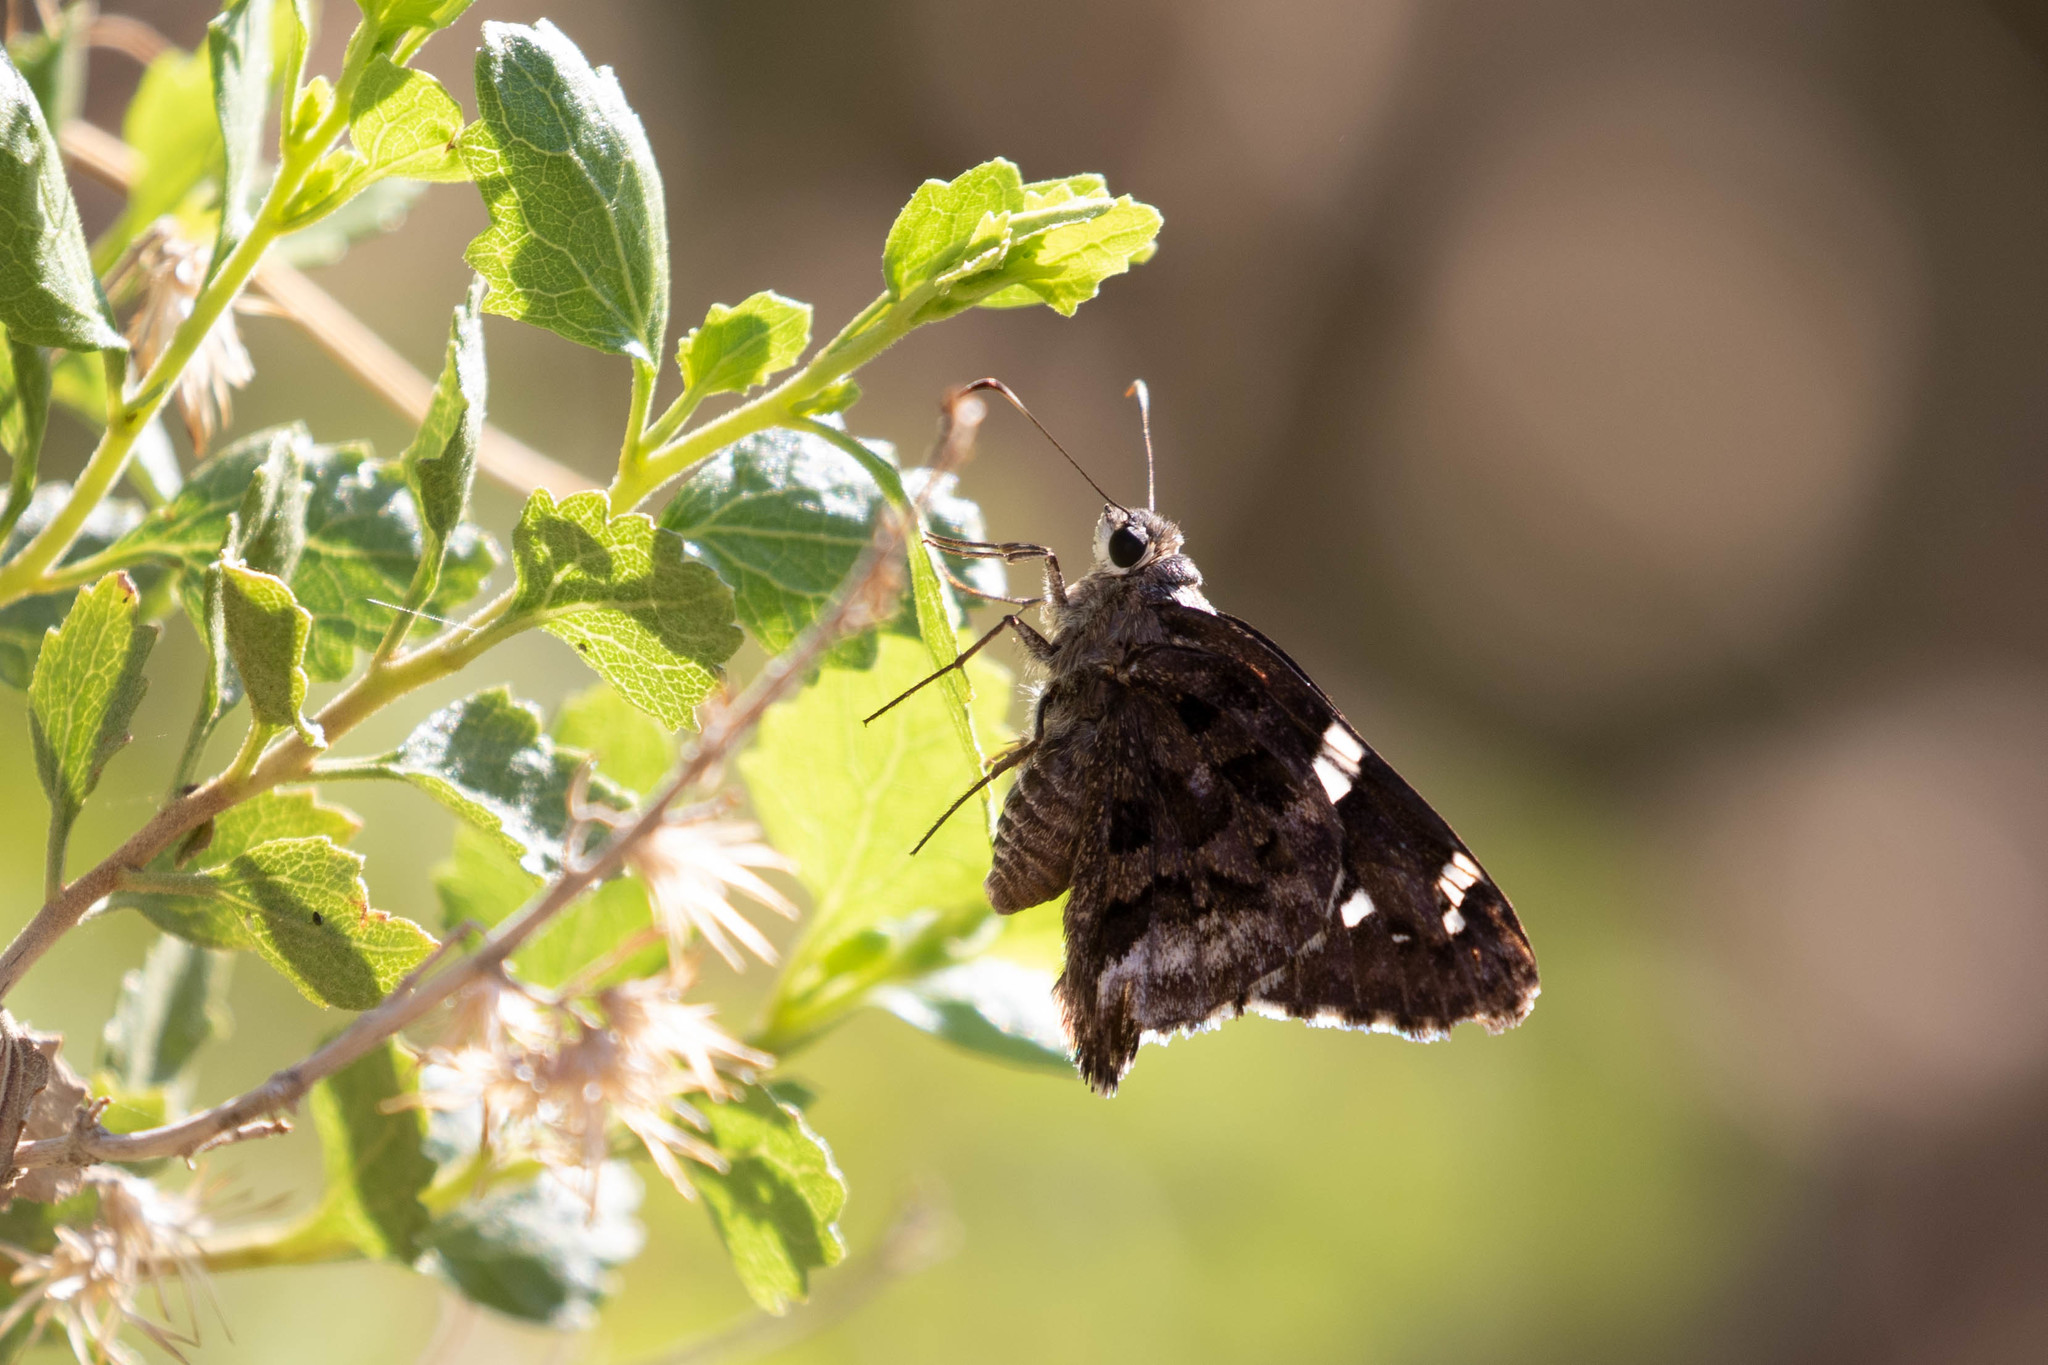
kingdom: Animalia
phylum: Arthropoda
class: Insecta
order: Lepidoptera
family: Hesperiidae
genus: Codatractus
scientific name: Codatractus arizonensis
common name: Arizona skipper
